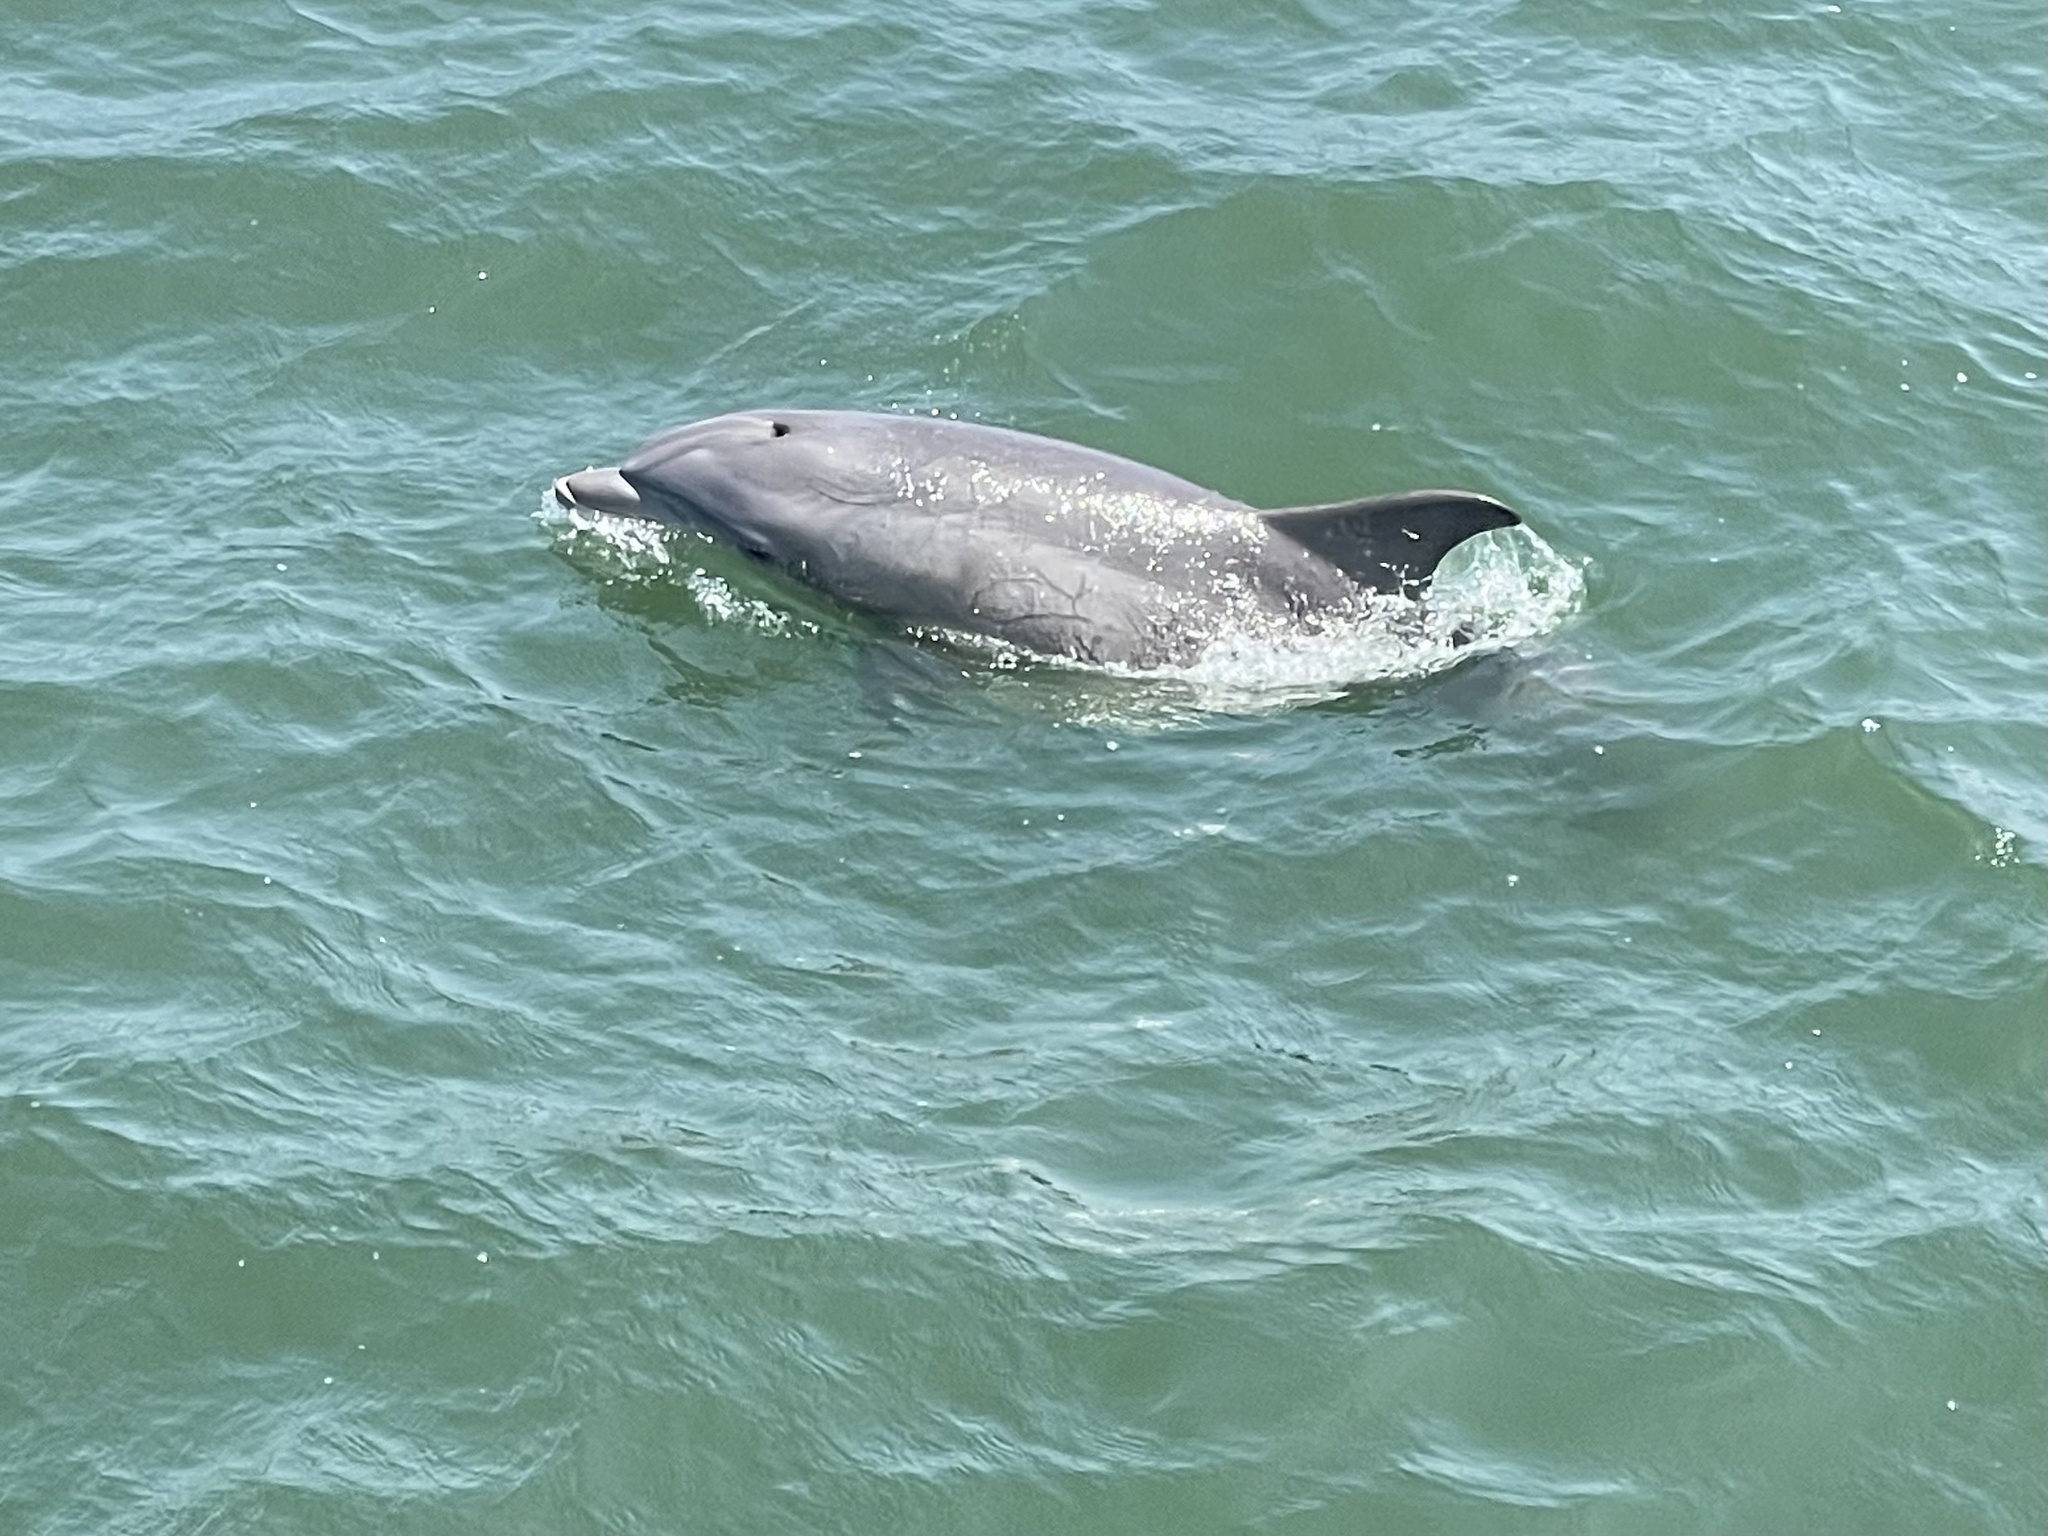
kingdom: Animalia
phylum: Chordata
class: Mammalia
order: Cetacea
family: Delphinidae
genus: Tursiops
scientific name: Tursiops truncatus
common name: Bottlenose dolphin
